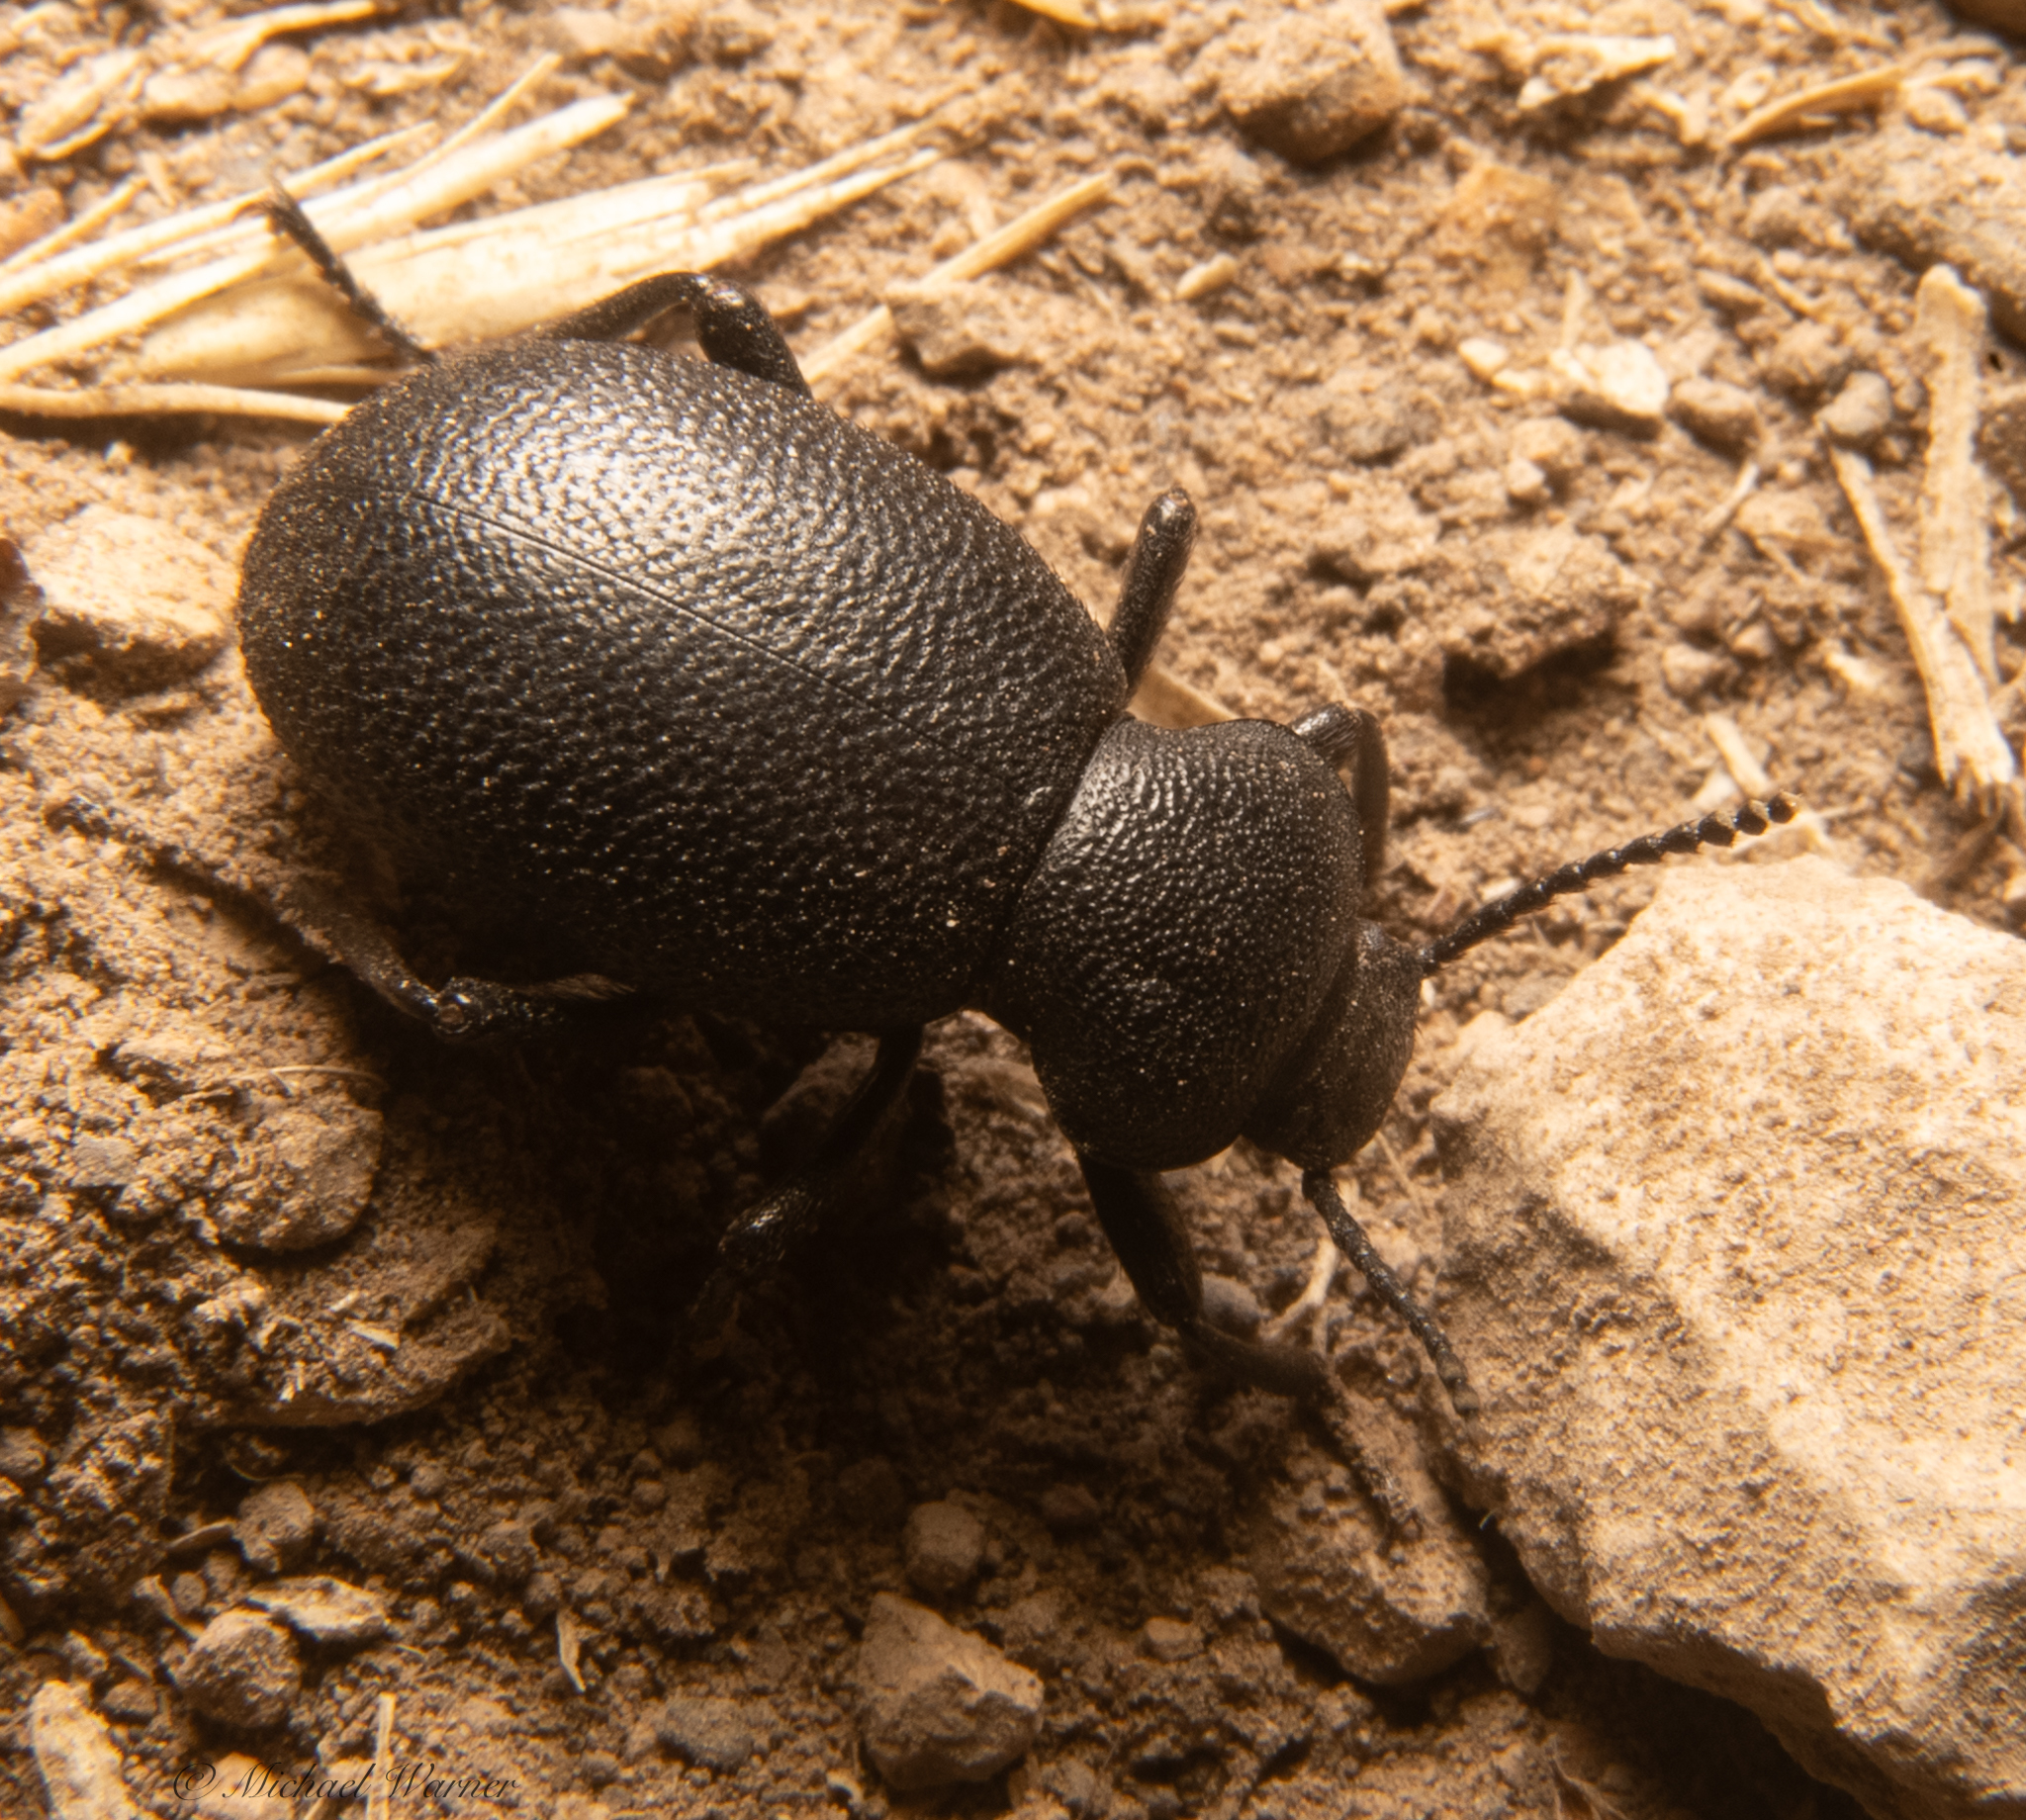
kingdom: Animalia
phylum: Arthropoda
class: Insecta
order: Coleoptera
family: Tenebrionidae
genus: Eleodes
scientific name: Eleodes cordata
